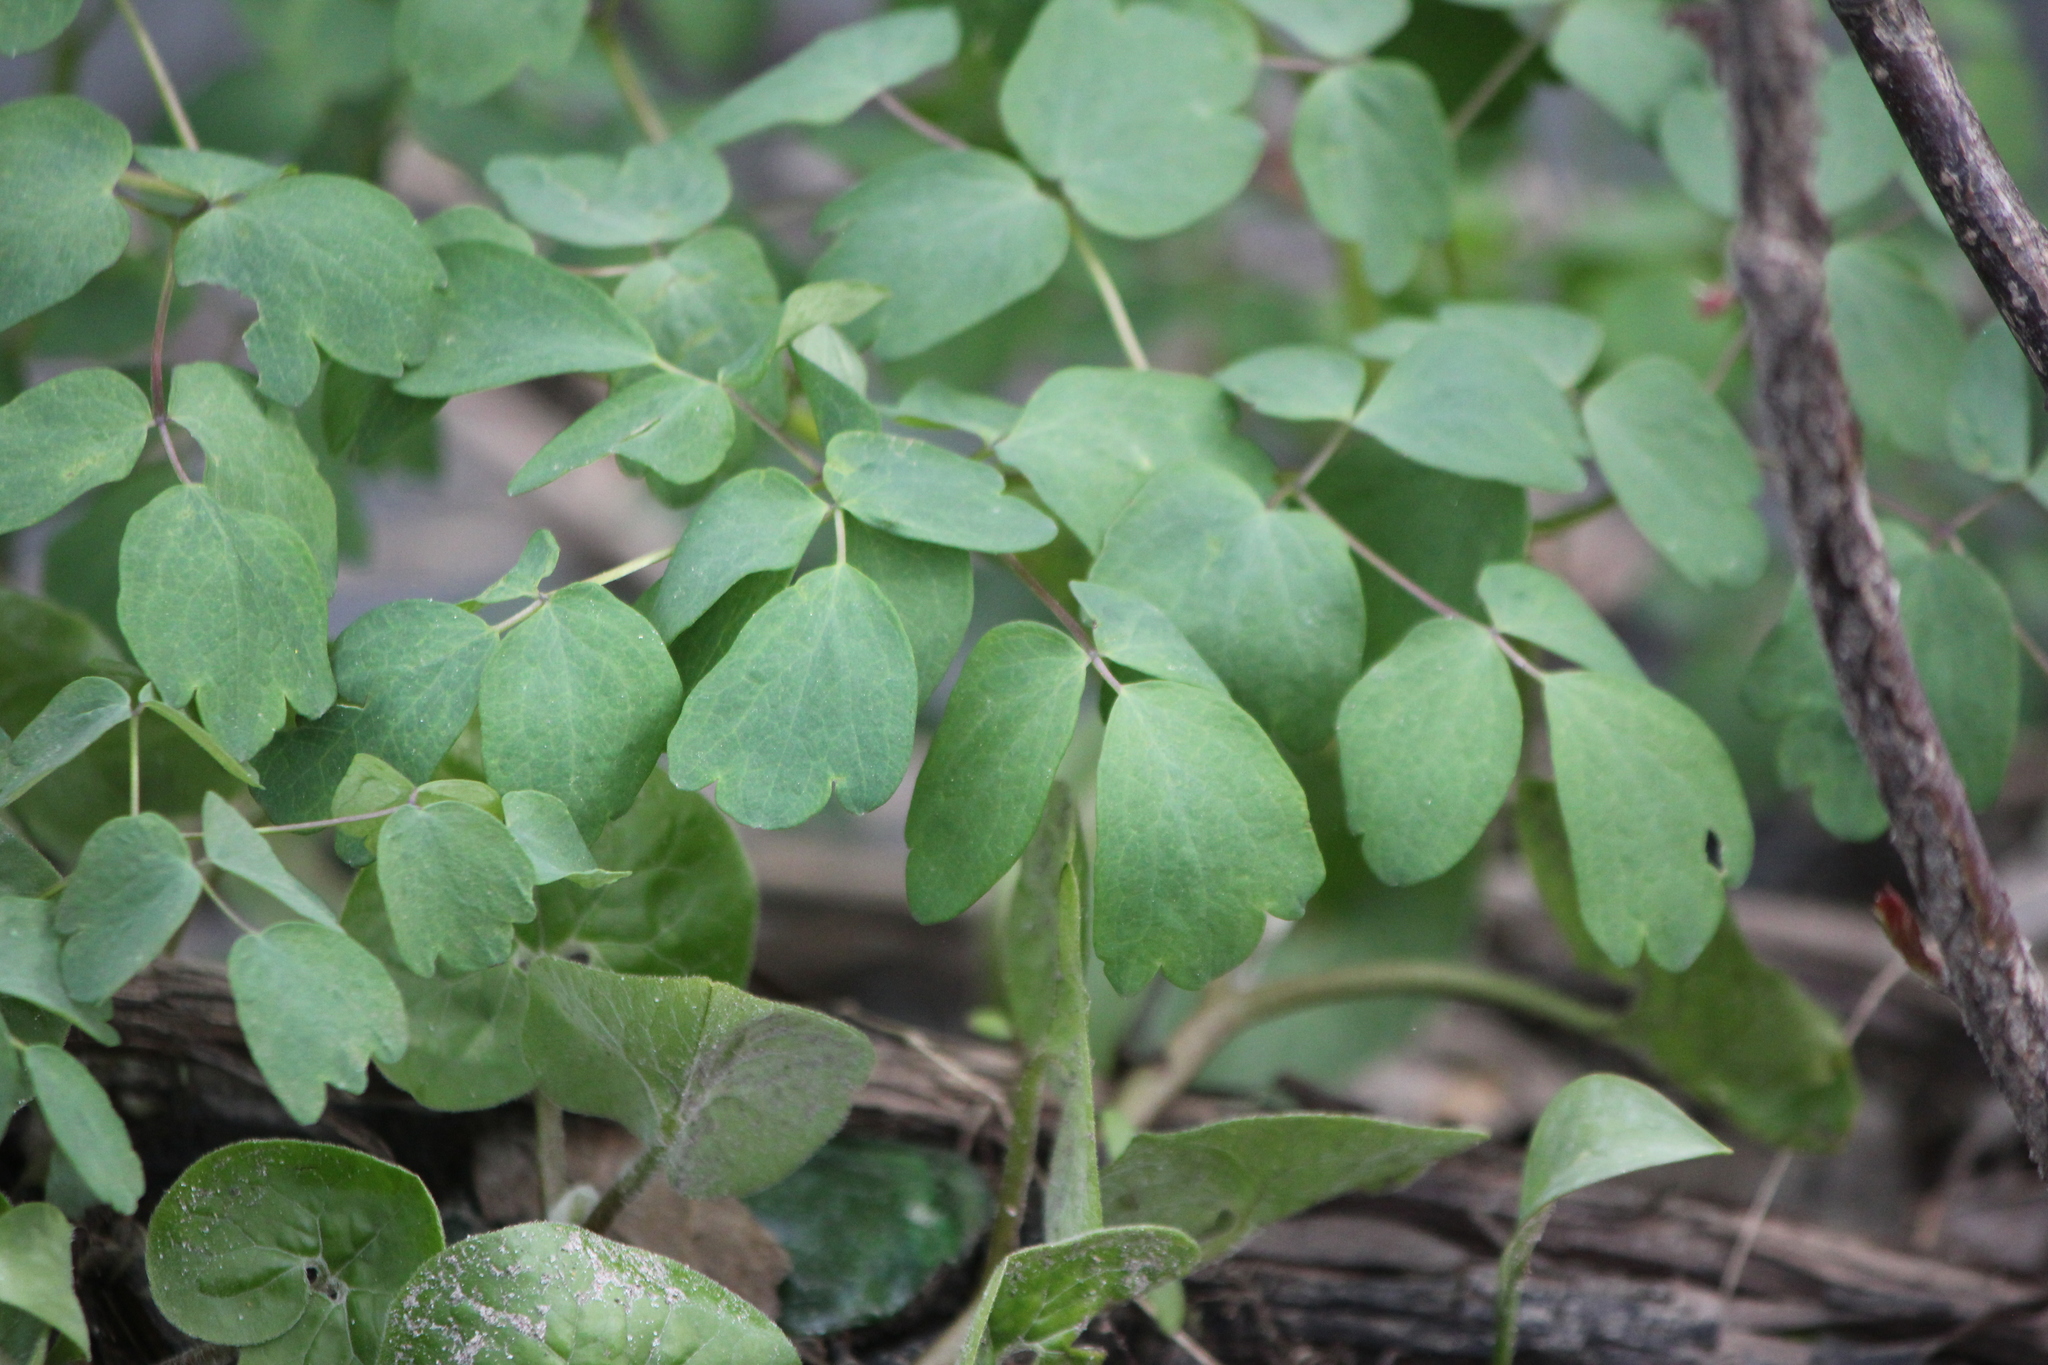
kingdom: Plantae
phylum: Tracheophyta
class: Magnoliopsida
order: Ranunculales
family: Ranunculaceae
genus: Thalictrum
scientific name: Thalictrum pubescens
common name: King-of-the-meadow
